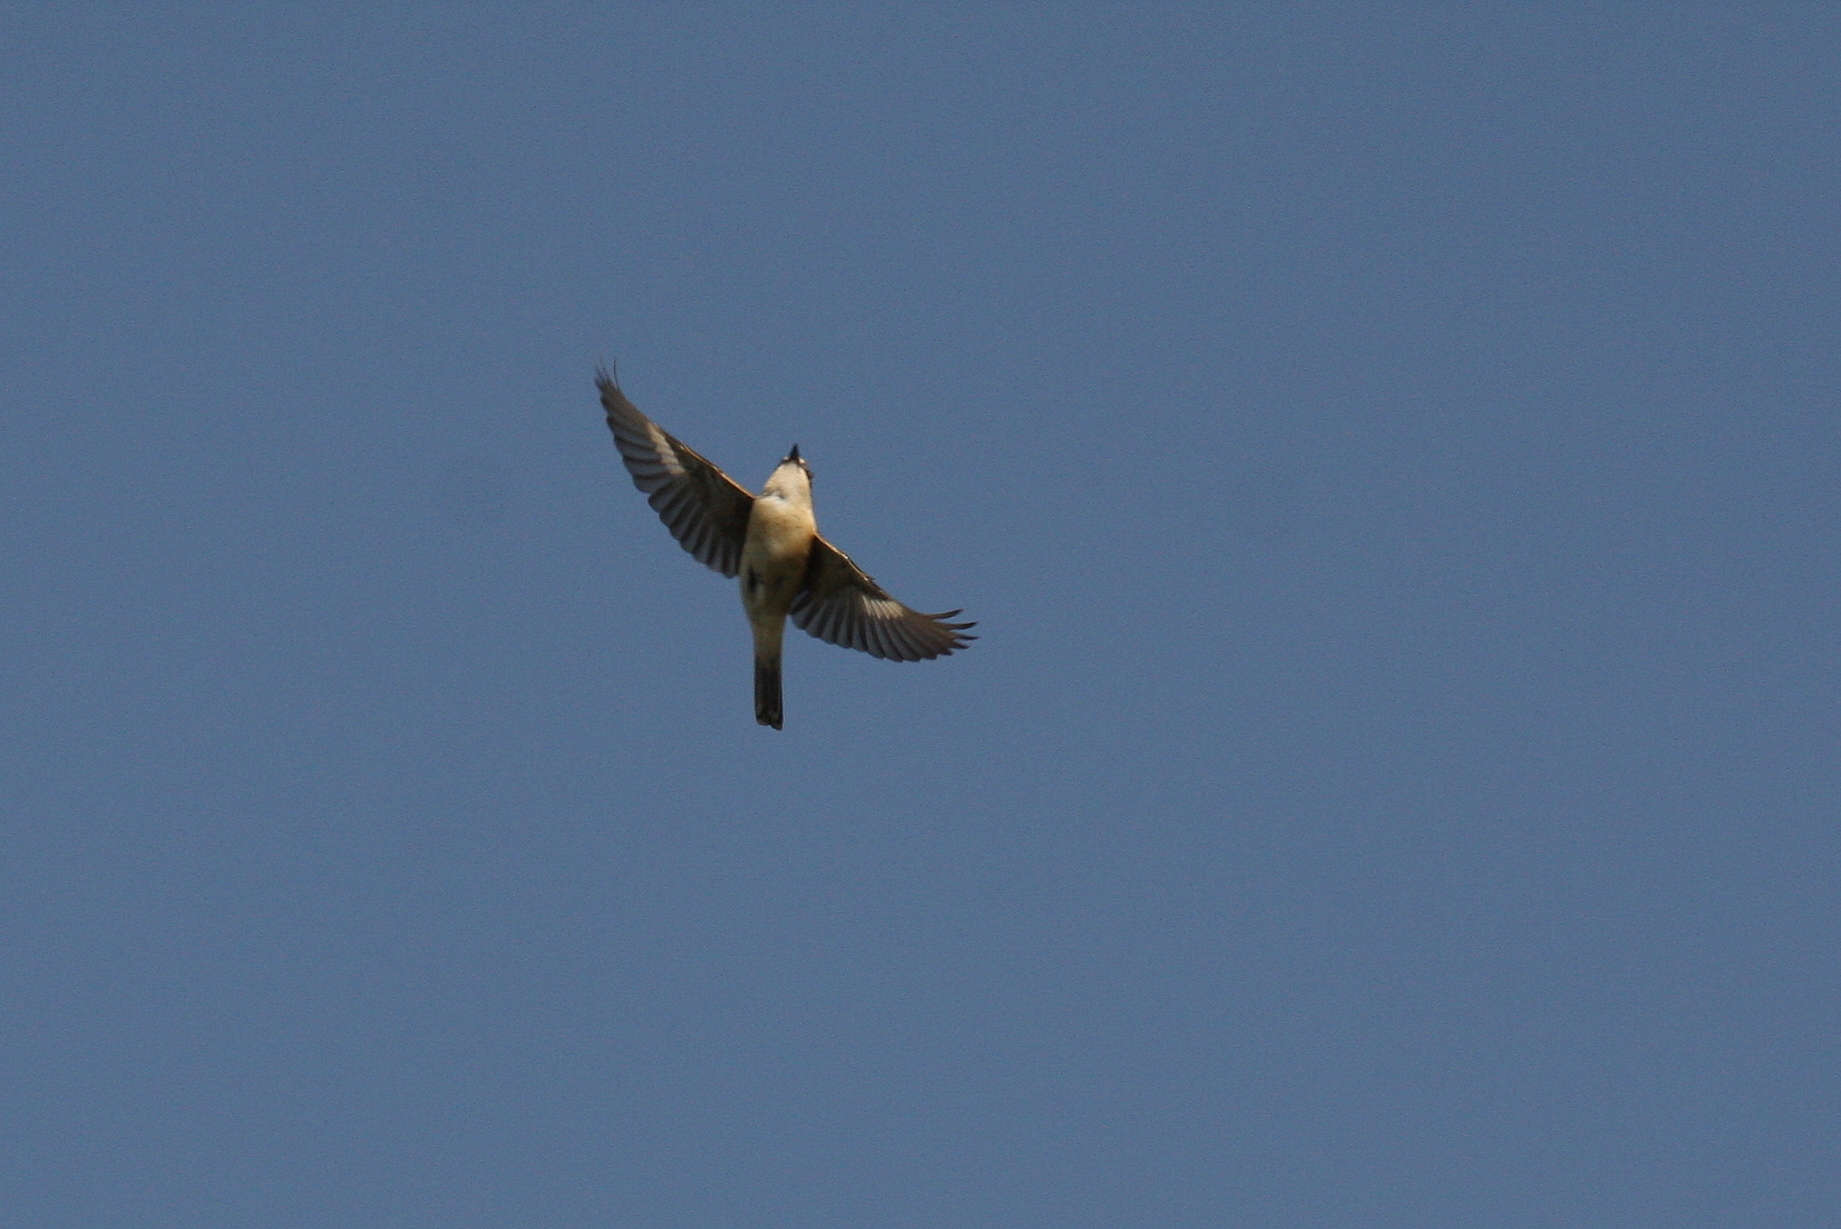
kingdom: Animalia
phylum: Chordata
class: Aves
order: Passeriformes
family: Laniidae
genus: Lanius
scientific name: Lanius senator
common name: Woodchat shrike
